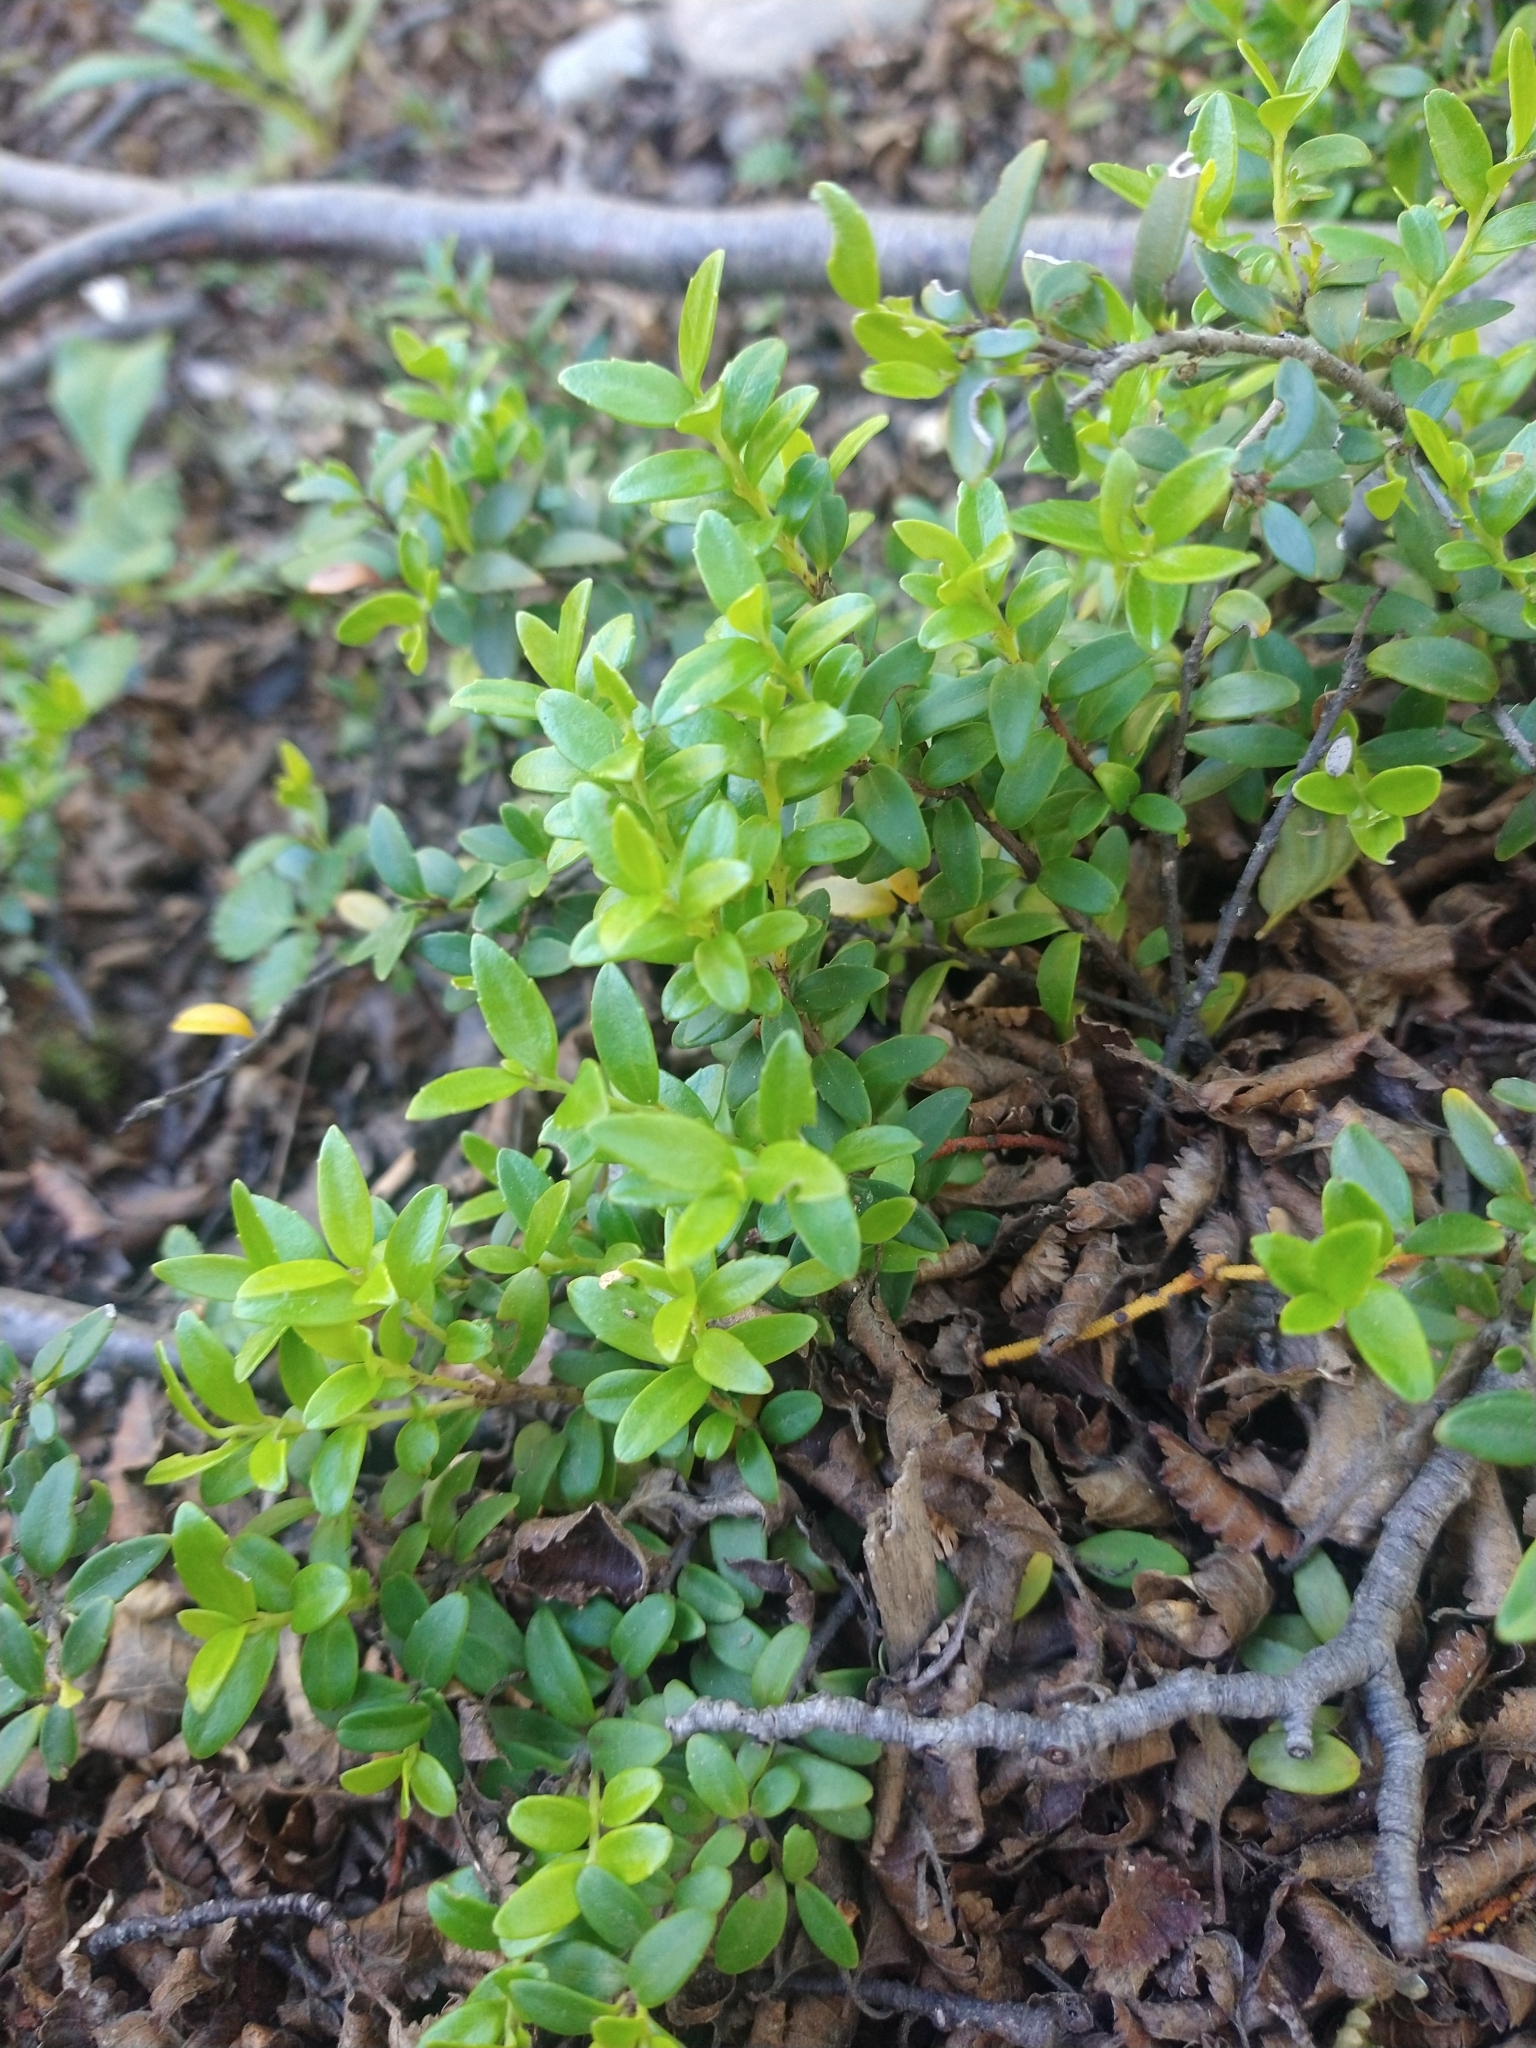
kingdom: Plantae
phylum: Tracheophyta
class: Magnoliopsida
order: Celastrales
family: Celastraceae
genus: Maytenus
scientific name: Maytenus disticha
